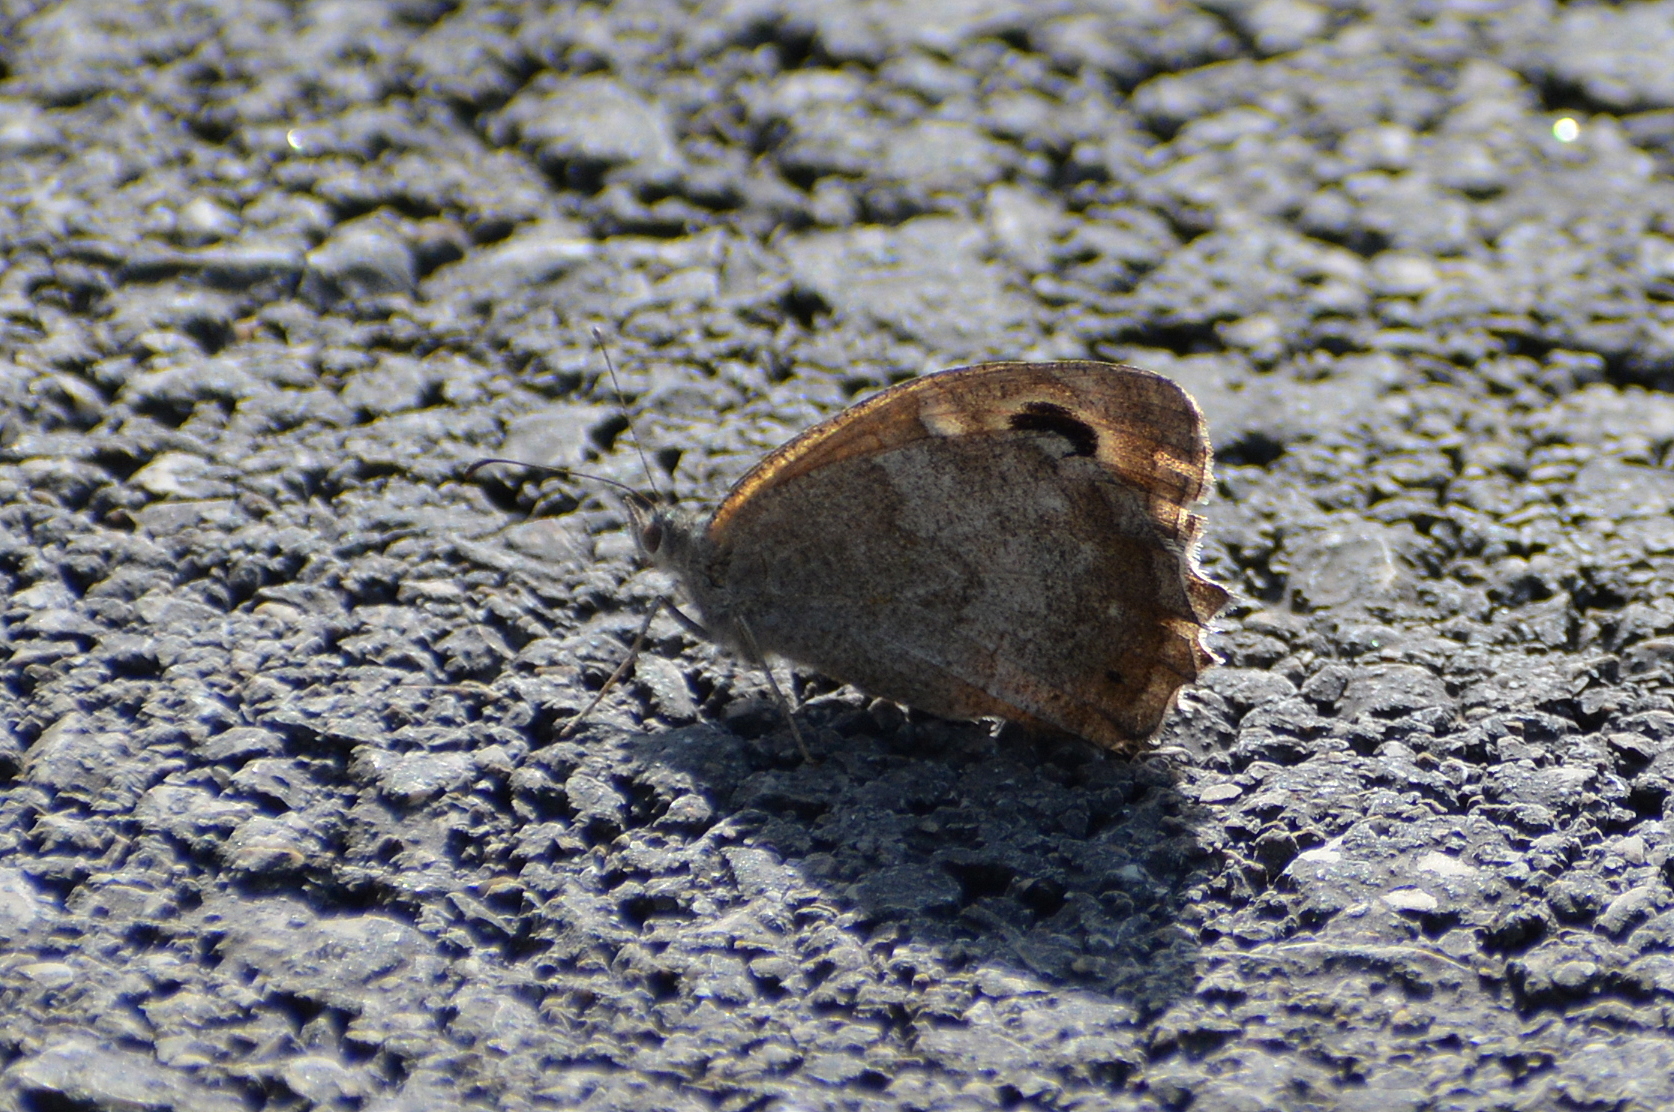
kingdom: Animalia
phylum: Arthropoda
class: Insecta
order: Lepidoptera
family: Nymphalidae
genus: Hipparchia
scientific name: Hipparchia statilinus
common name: Tree grayling
